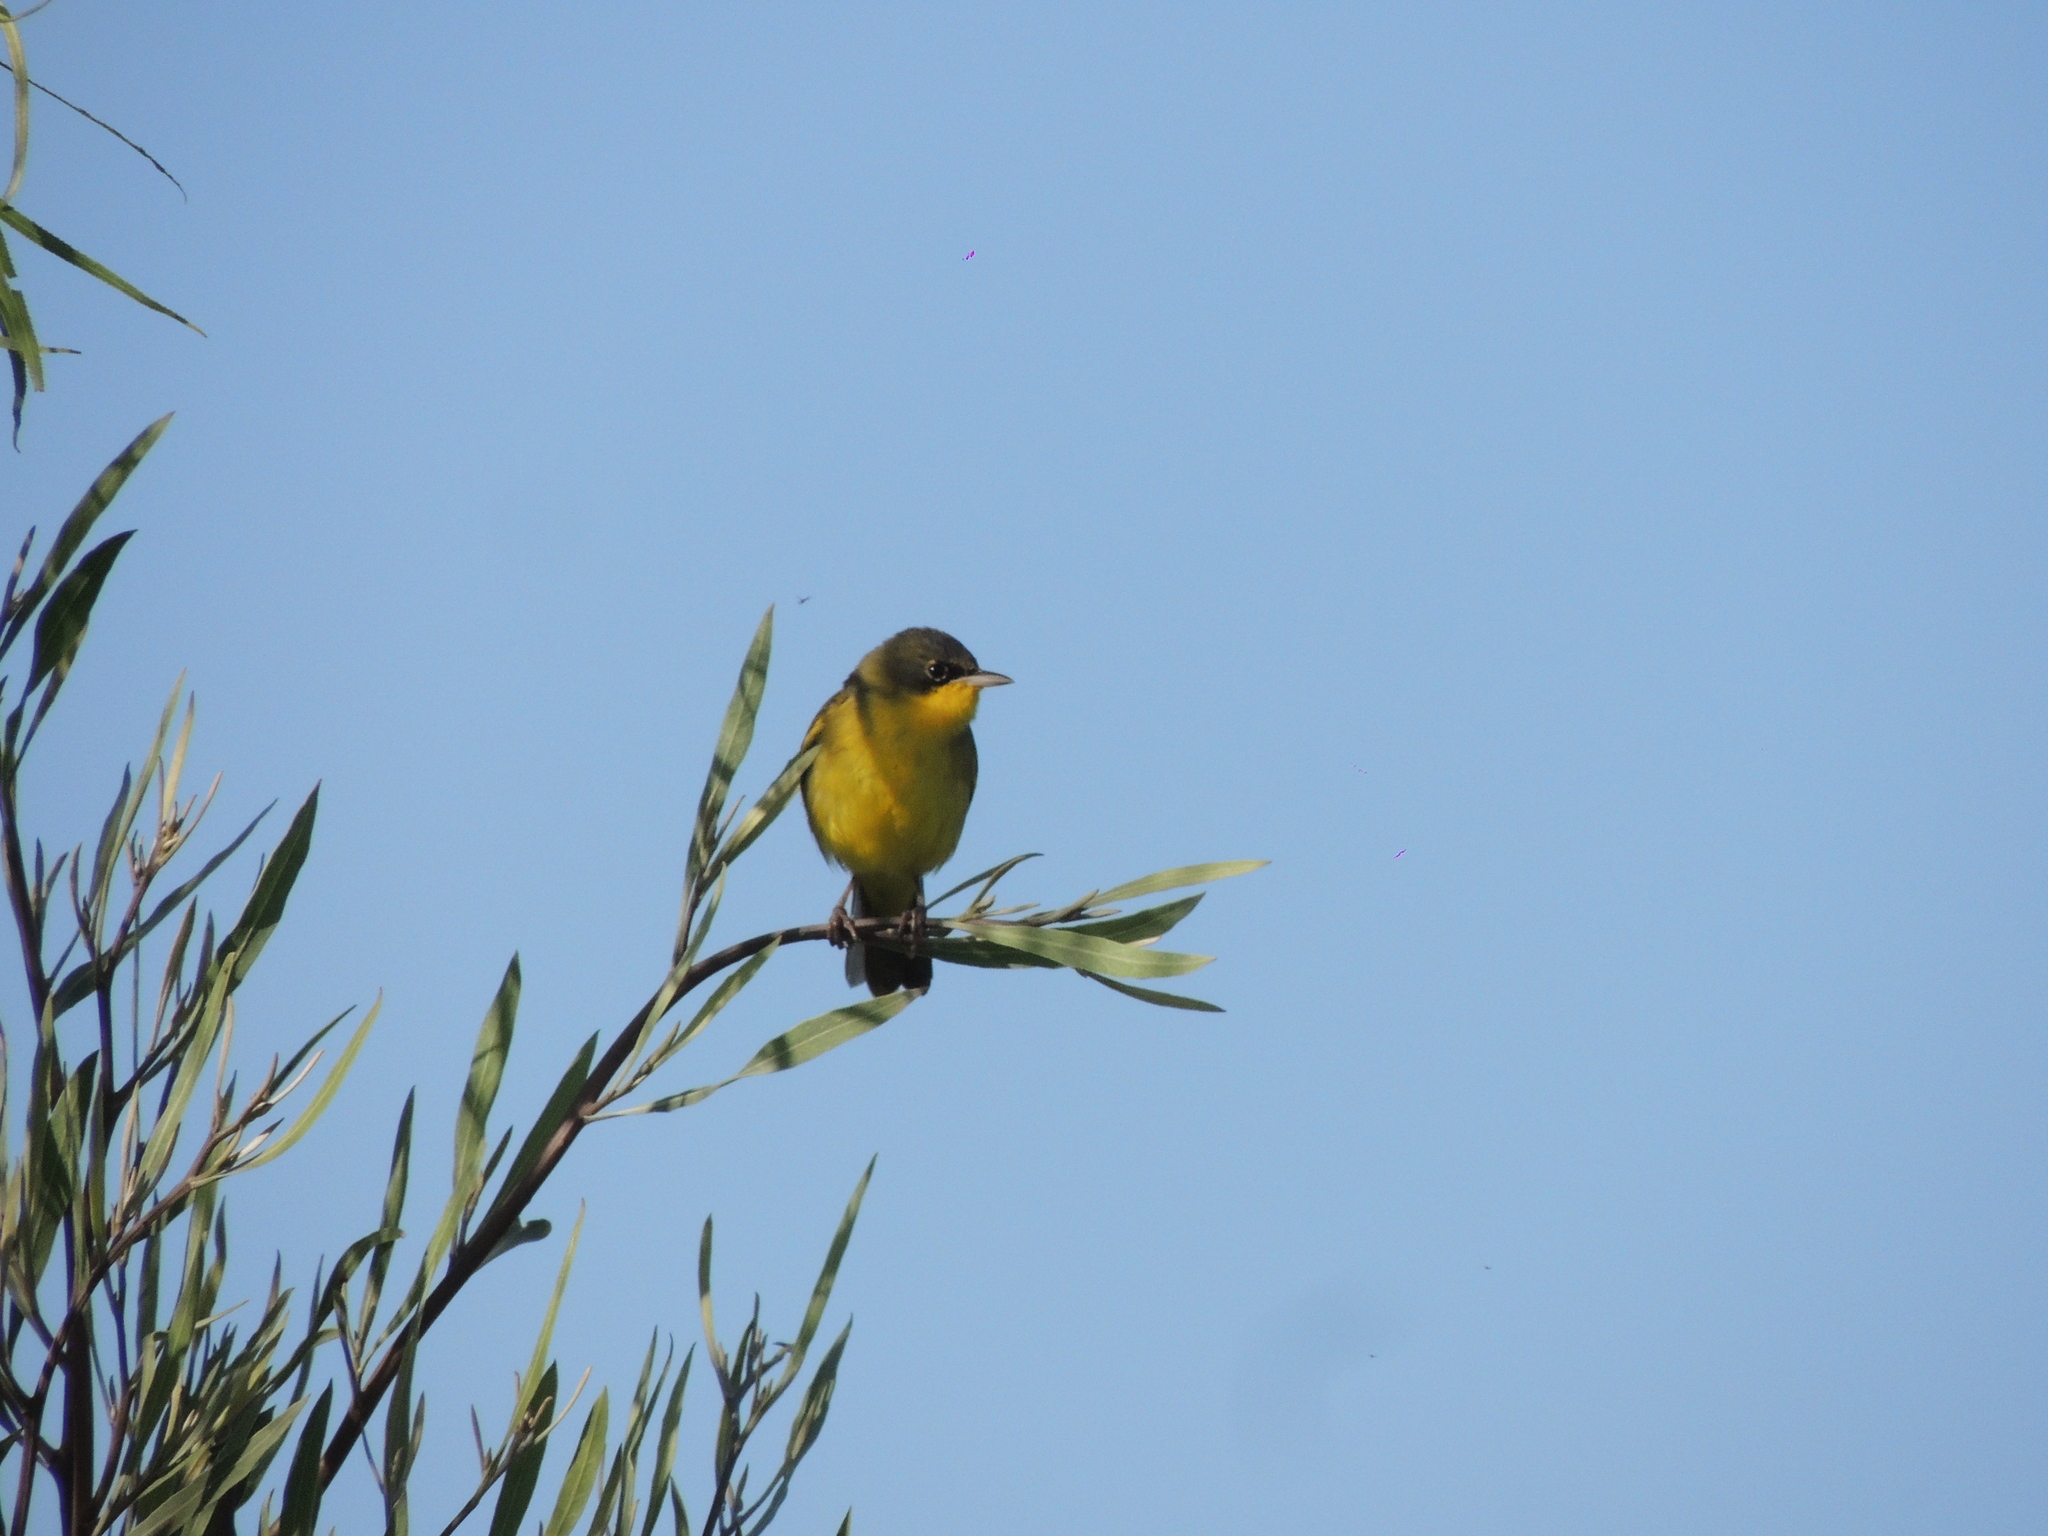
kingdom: Animalia
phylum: Chordata
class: Aves
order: Passeriformes
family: Parulidae
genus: Geothlypis
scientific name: Geothlypis velata
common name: Southern yellowthroat
